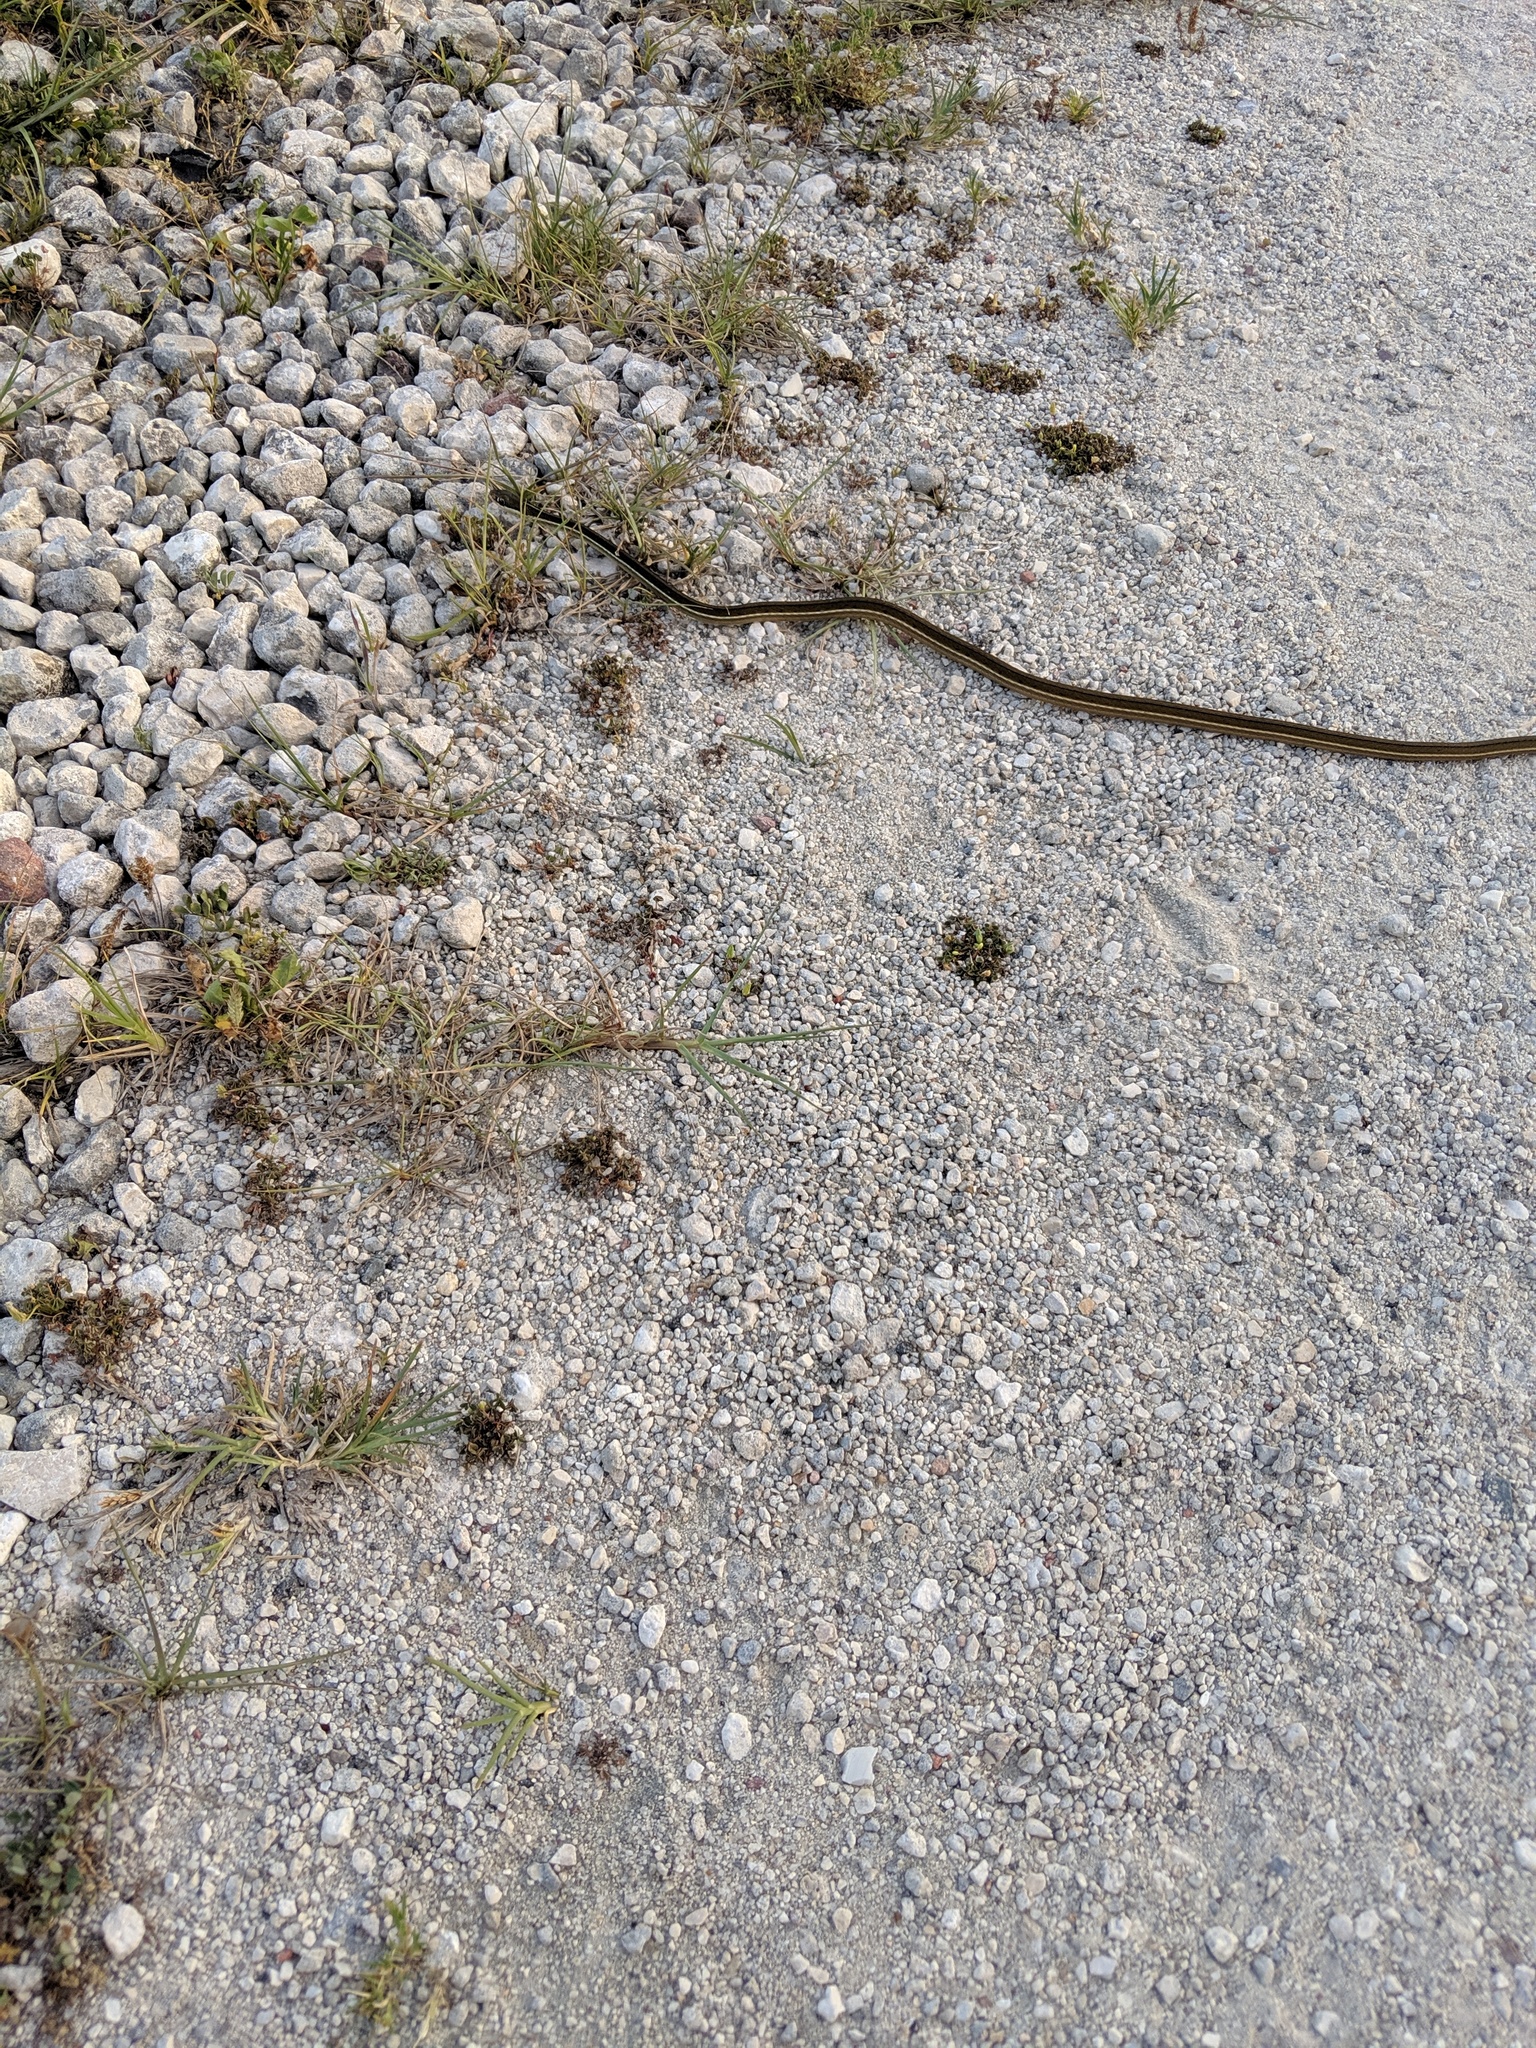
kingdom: Animalia
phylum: Chordata
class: Squamata
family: Colubridae
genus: Thamnophis
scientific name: Thamnophis saurita
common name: Eastern ribbonsnake
